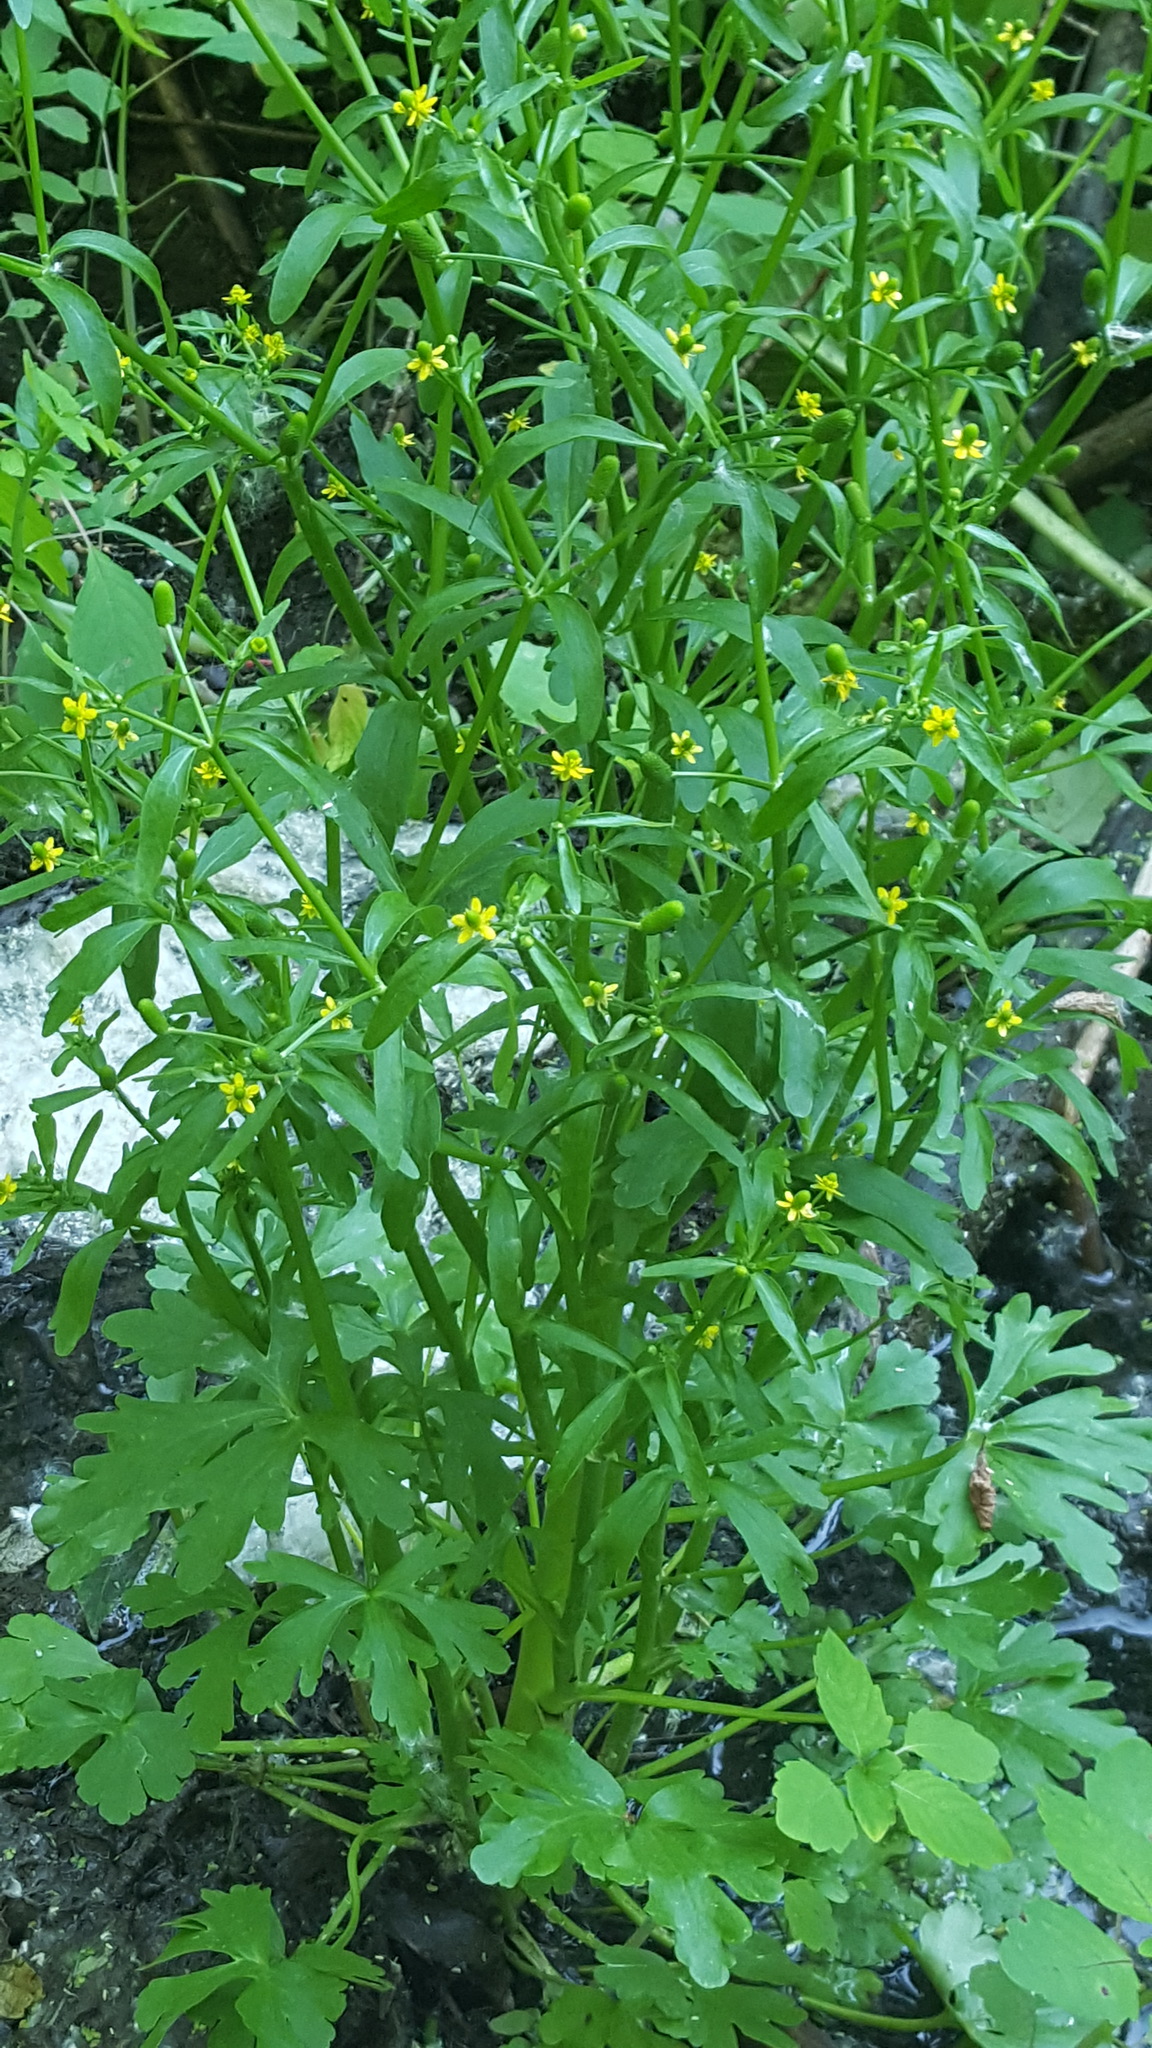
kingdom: Plantae
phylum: Tracheophyta
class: Magnoliopsida
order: Ranunculales
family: Ranunculaceae
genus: Ranunculus
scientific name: Ranunculus sceleratus
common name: Celery-leaved buttercup
